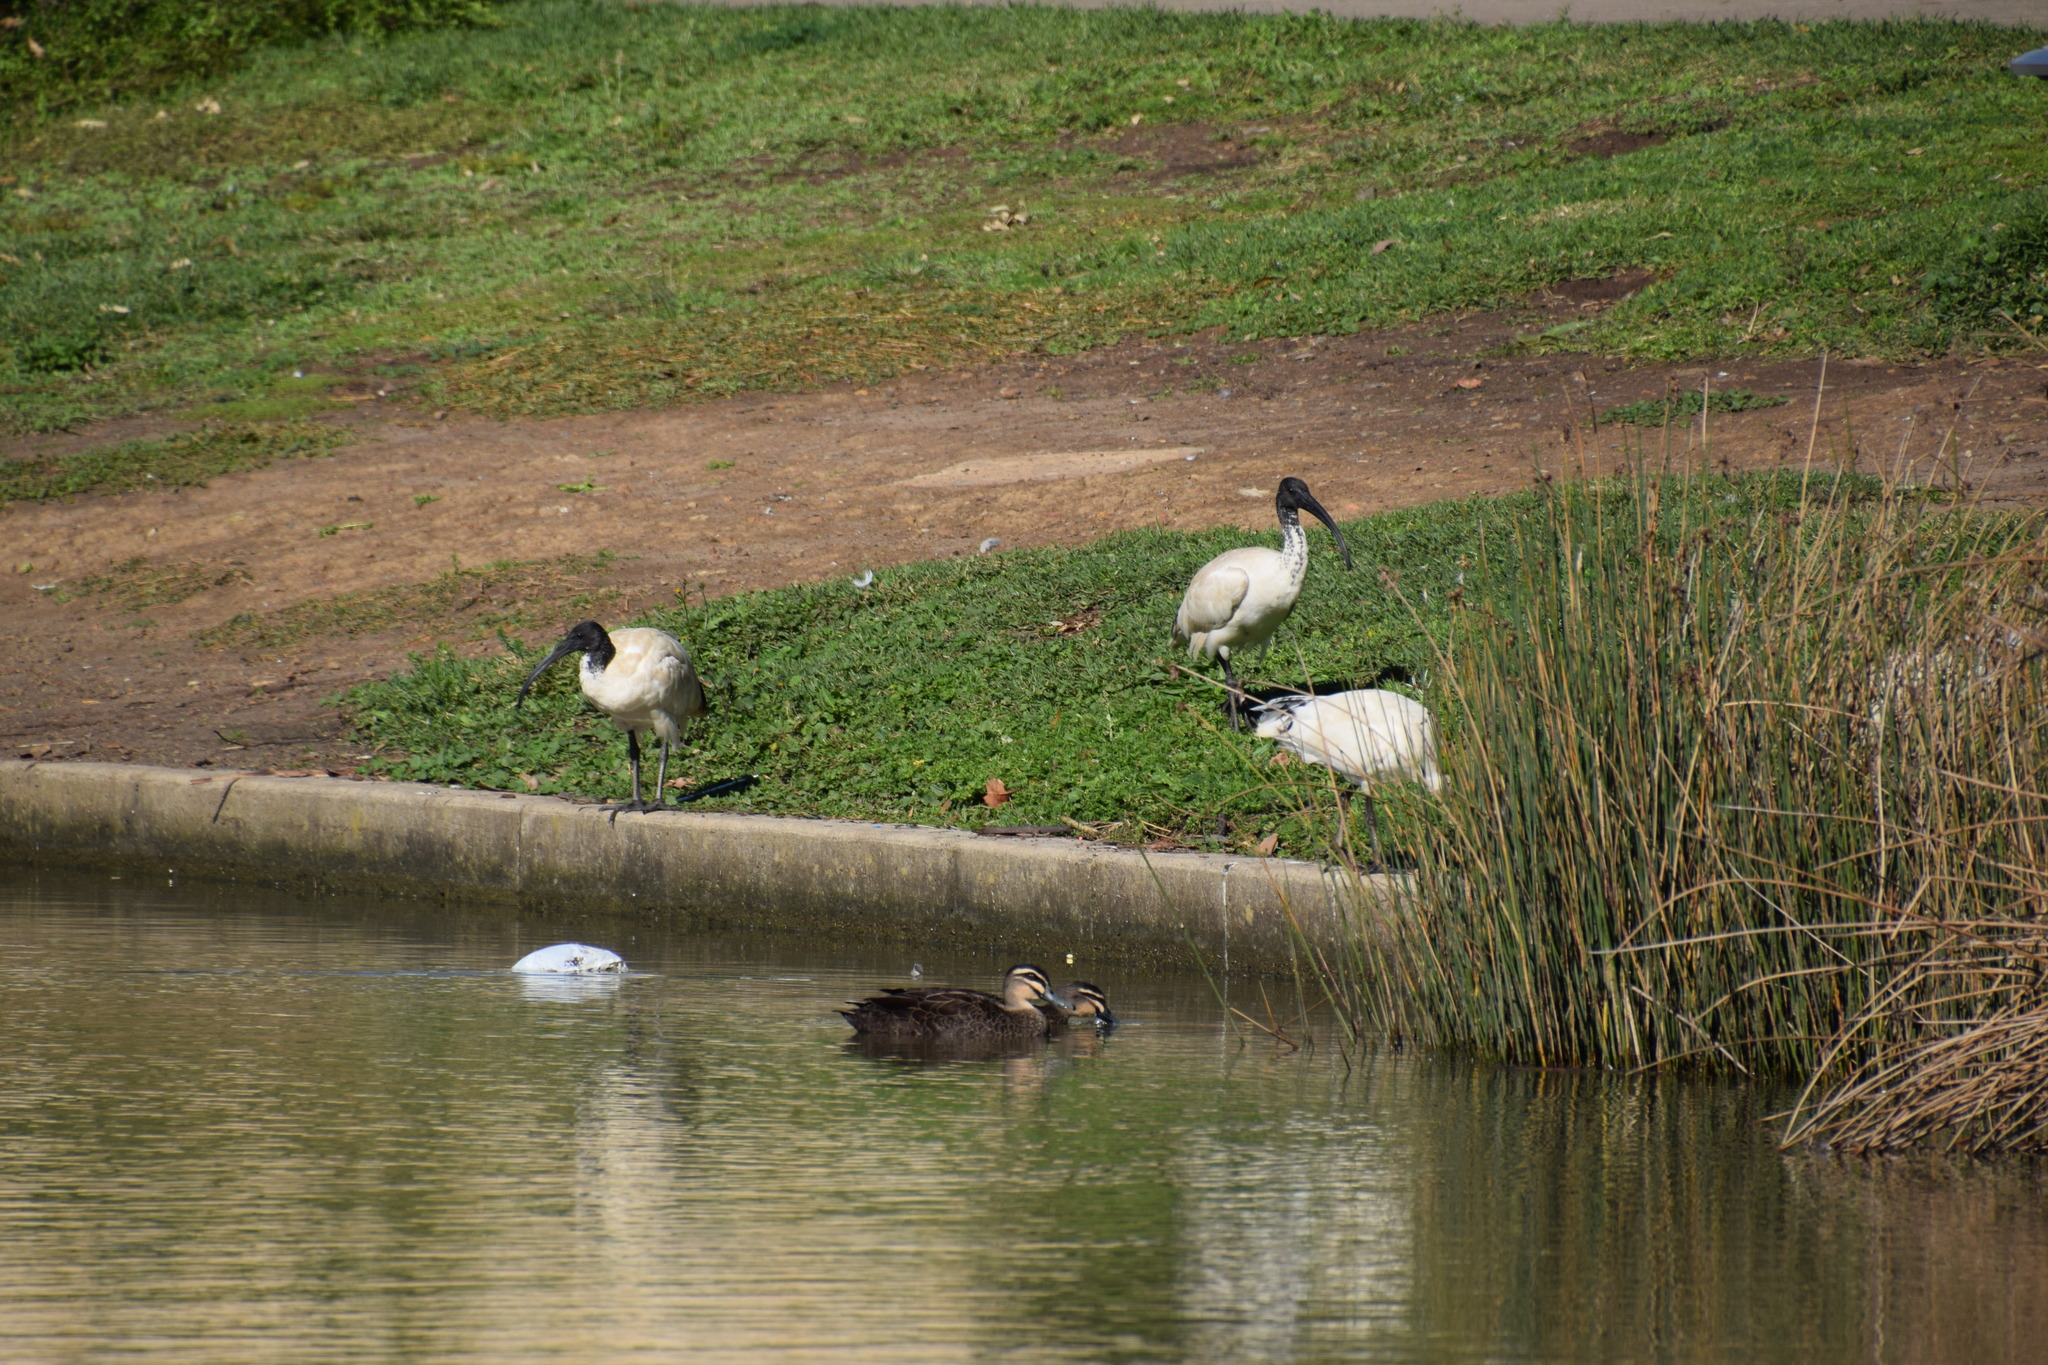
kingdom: Animalia
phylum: Chordata
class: Aves
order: Pelecaniformes
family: Threskiornithidae
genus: Threskiornis
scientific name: Threskiornis molucca
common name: Australian white ibis
